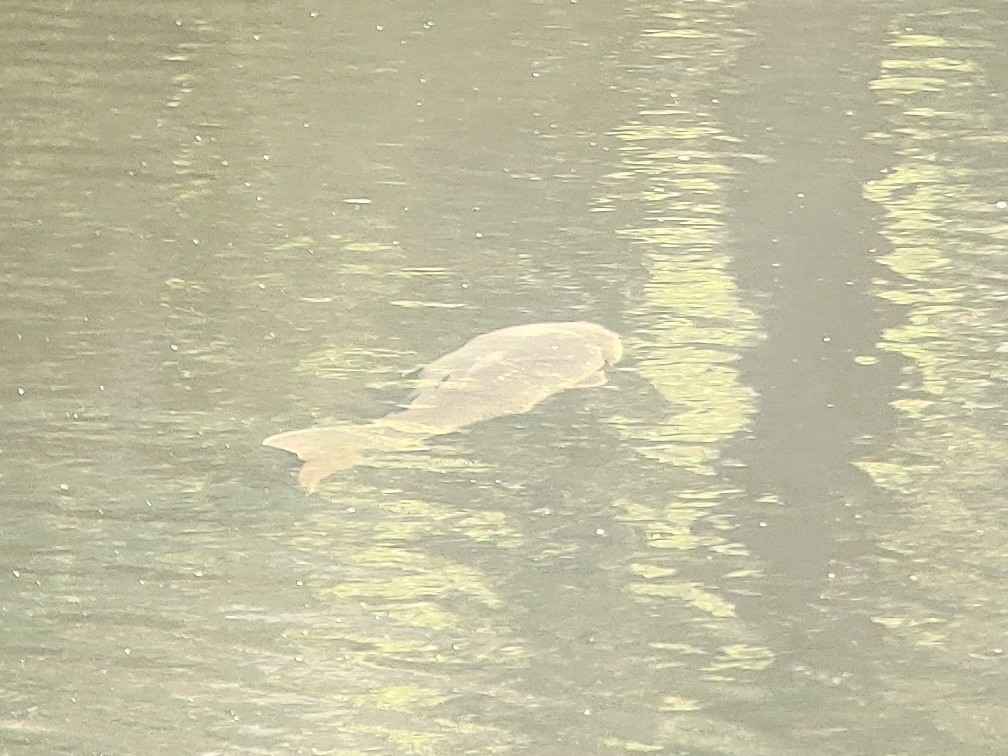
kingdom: Animalia
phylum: Chordata
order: Cypriniformes
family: Cyprinidae
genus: Cyprinus
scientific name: Cyprinus carpio
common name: Common carp
